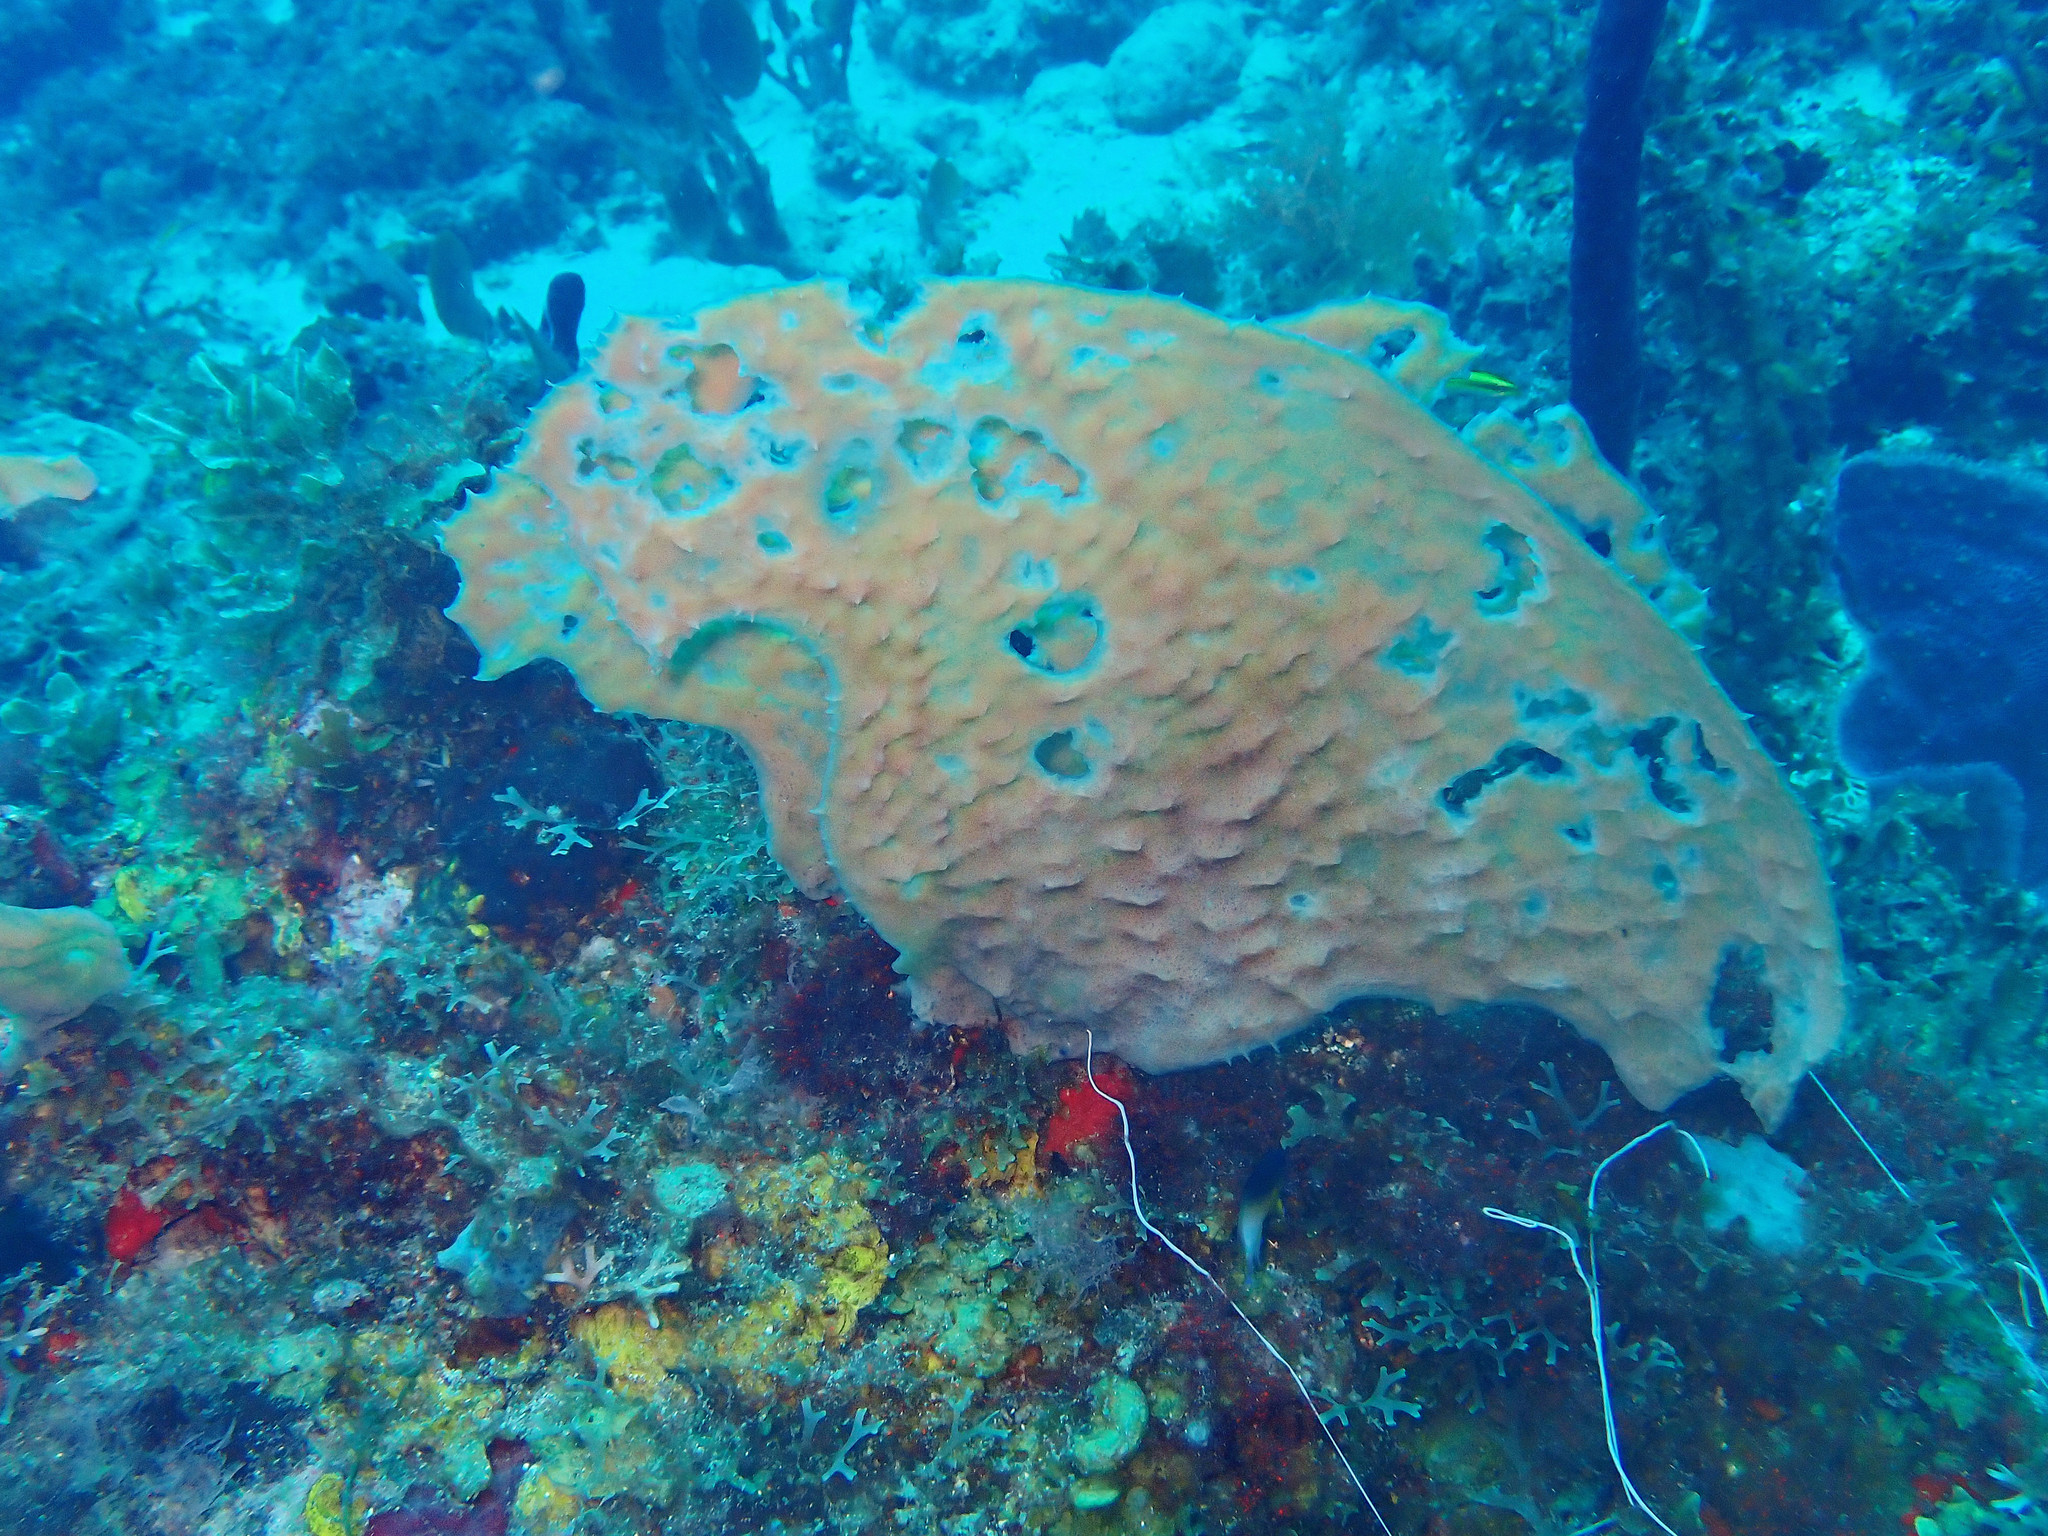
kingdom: Animalia
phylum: Porifera
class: Demospongiae
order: Haplosclerida
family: Callyspongiidae
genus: Callyspongia
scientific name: Callyspongia aculeata
